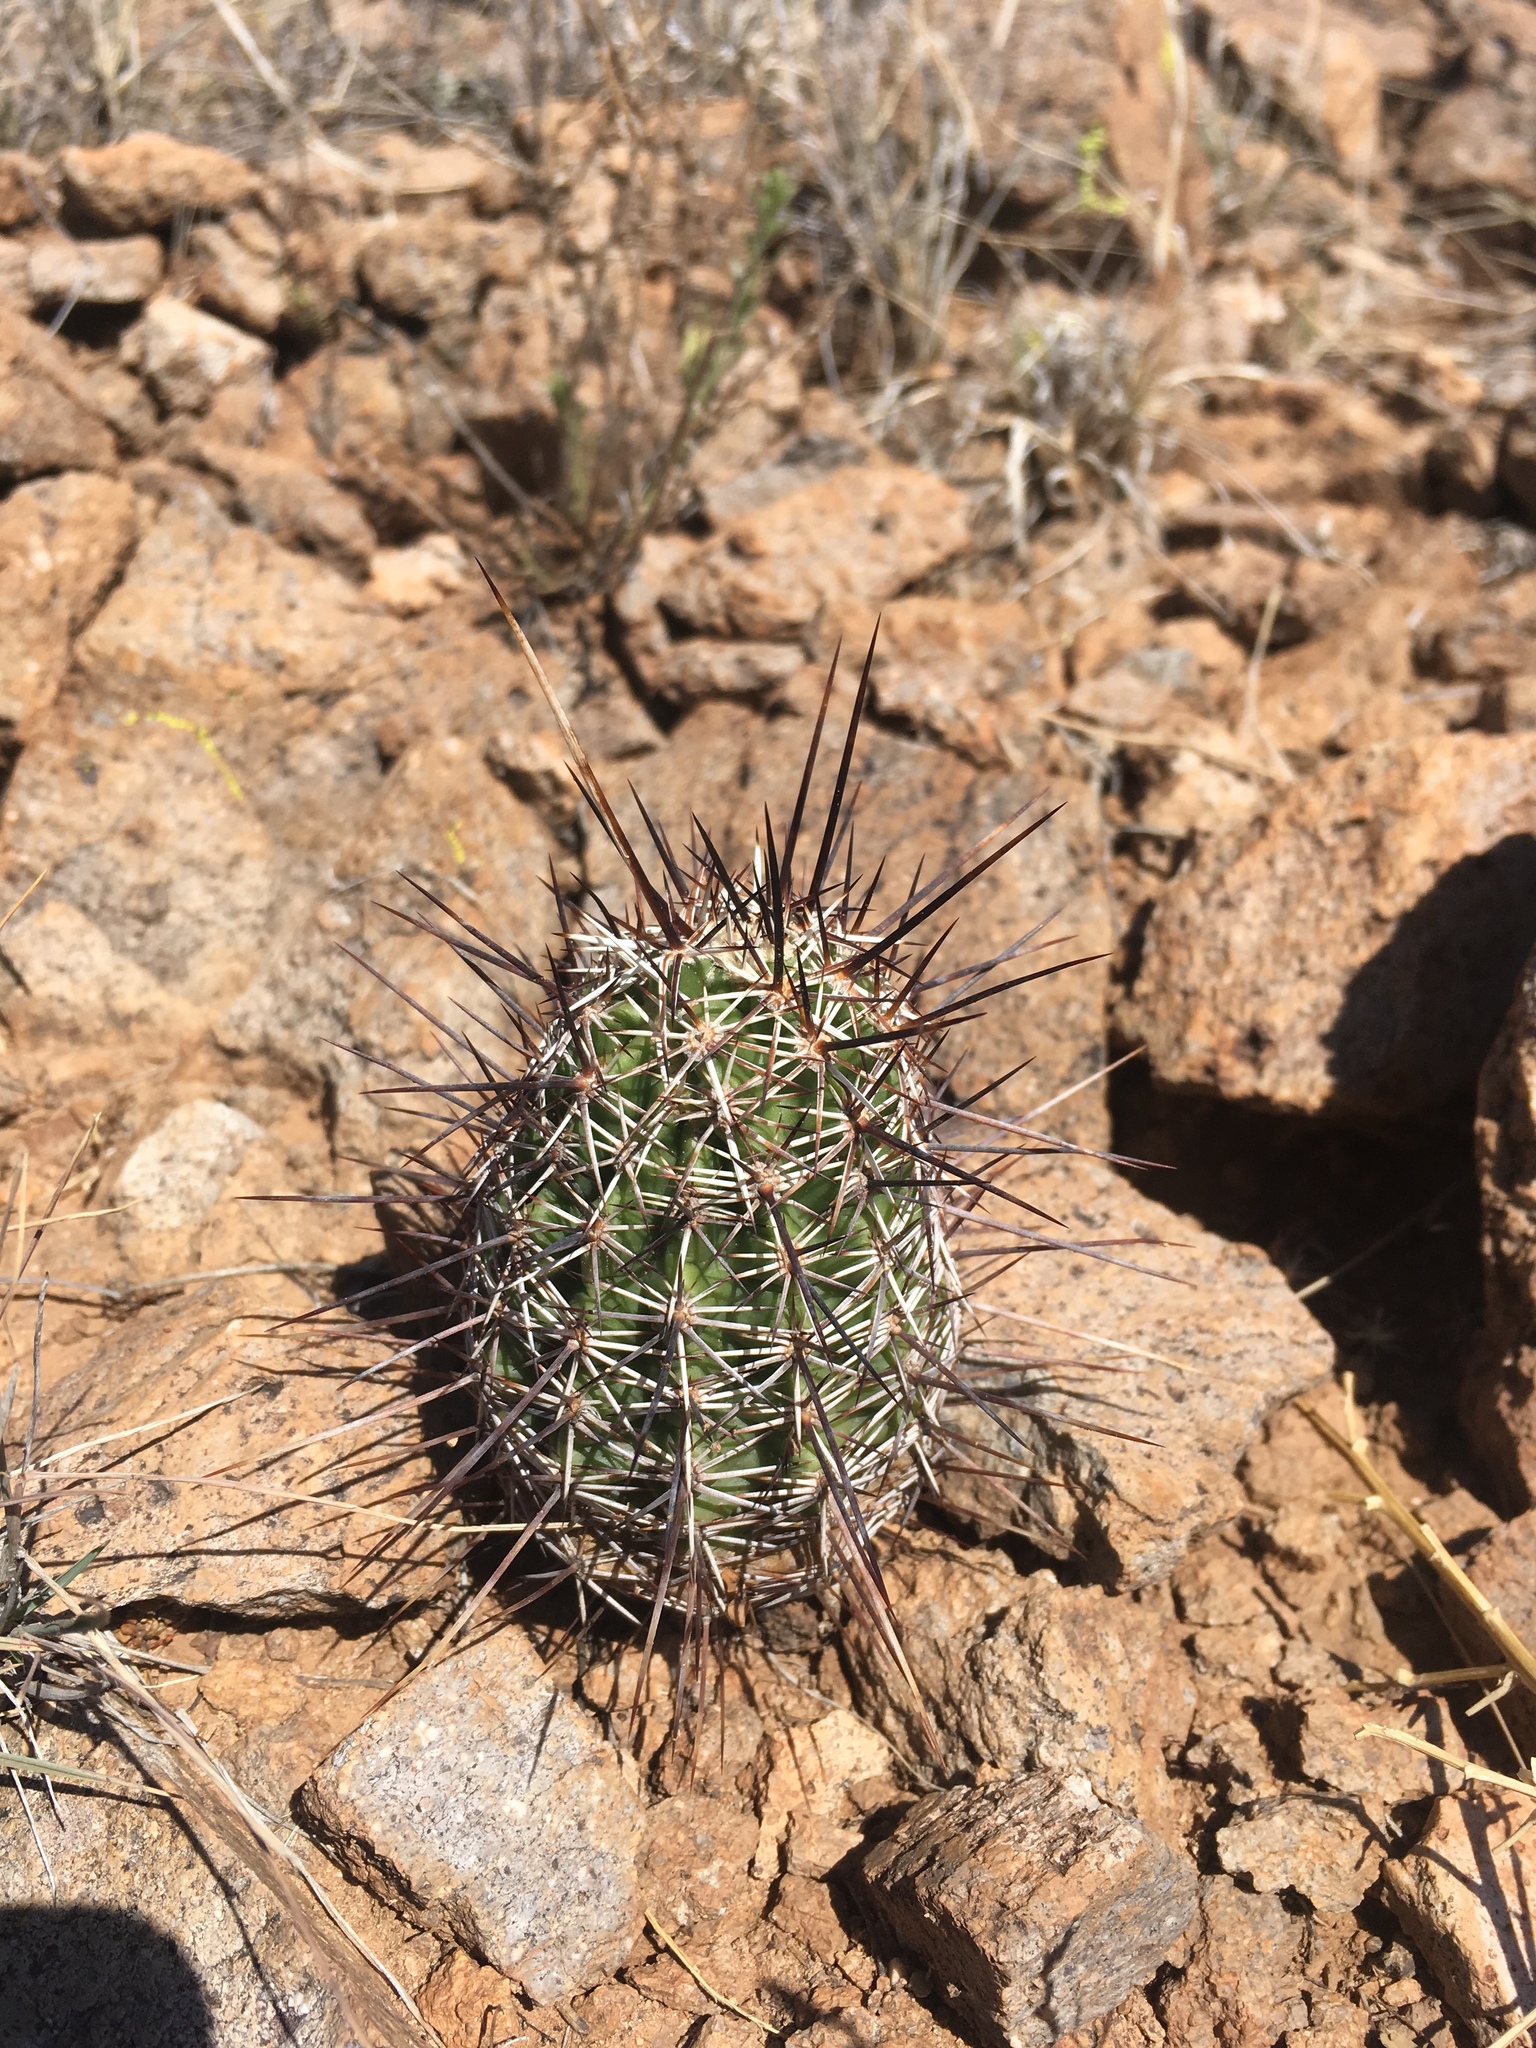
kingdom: Plantae
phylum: Tracheophyta
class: Magnoliopsida
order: Caryophyllales
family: Cactaceae
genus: Echinocereus
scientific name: Echinocereus fendleri
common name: Fendler's hedgehog cactus
